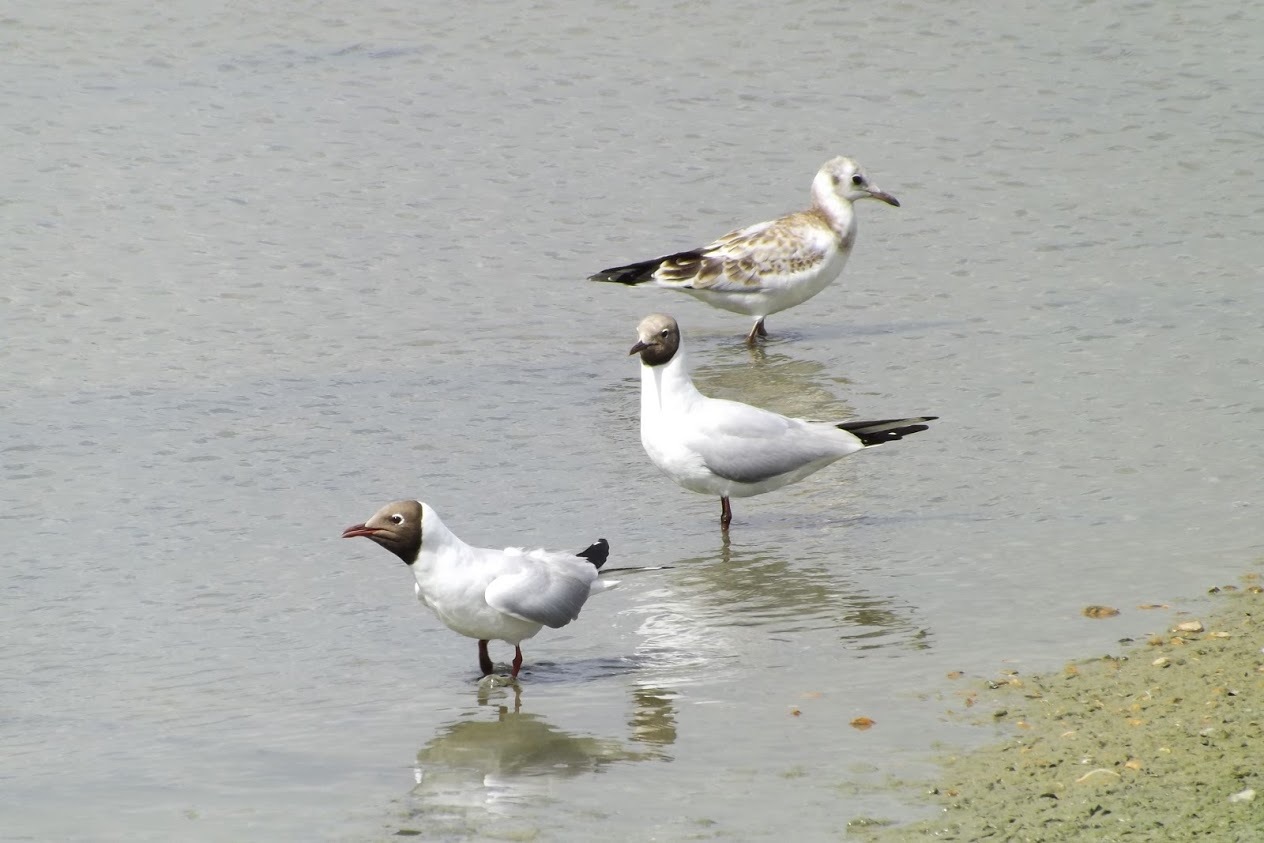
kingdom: Animalia
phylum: Chordata
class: Aves
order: Charadriiformes
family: Laridae
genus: Chroicocephalus
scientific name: Chroicocephalus ridibundus
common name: Black-headed gull
